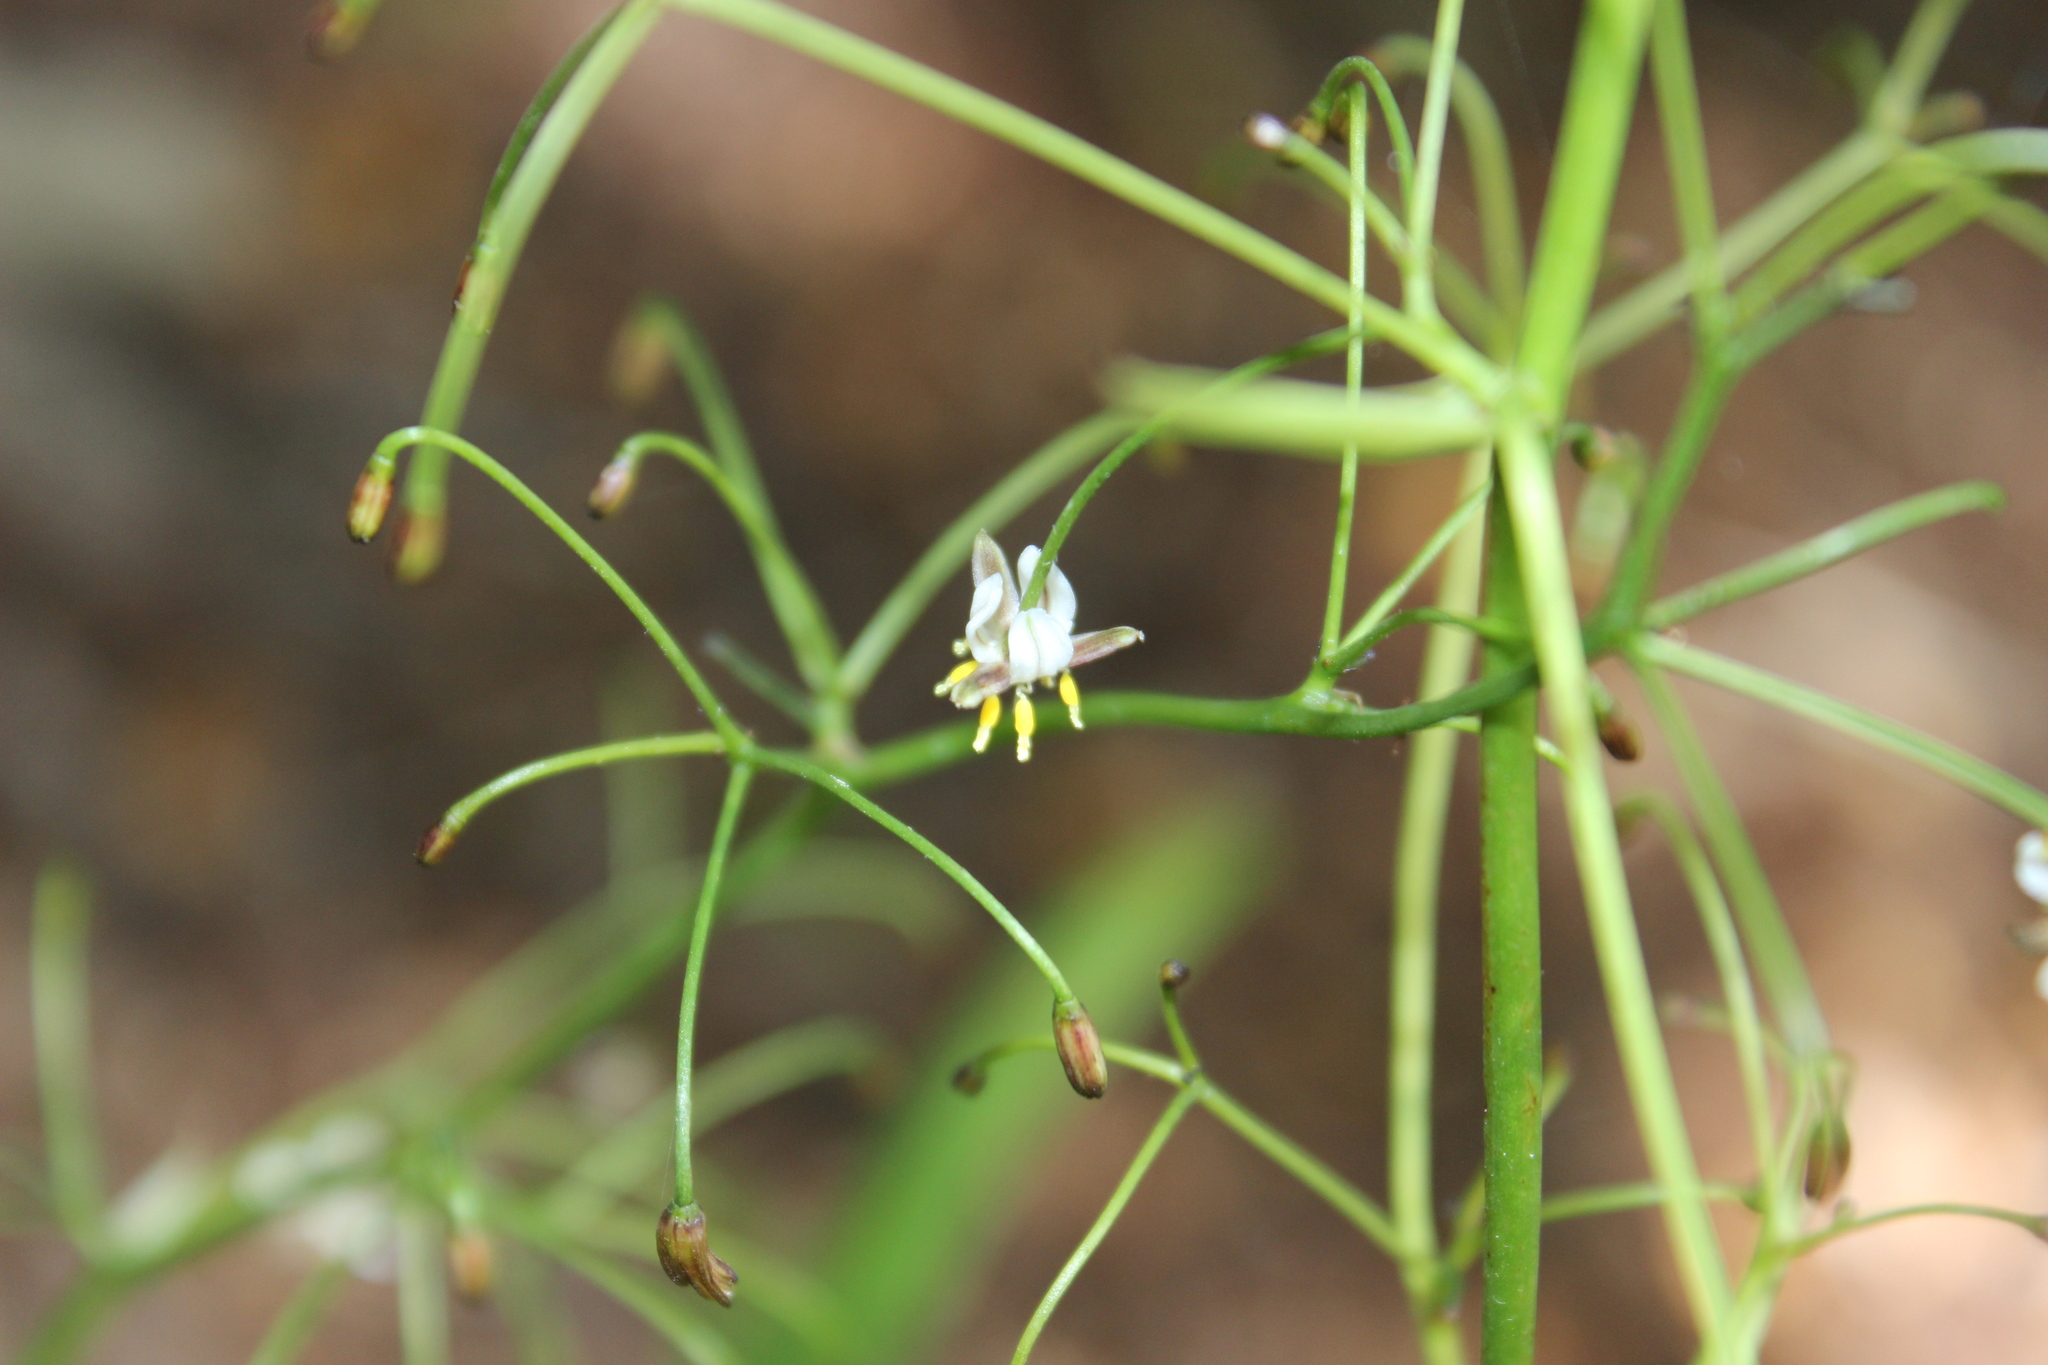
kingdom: Plantae
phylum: Tracheophyta
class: Liliopsida
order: Asparagales
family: Asphodelaceae
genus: Dianella
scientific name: Dianella nigra
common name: New zealand-blueberry
